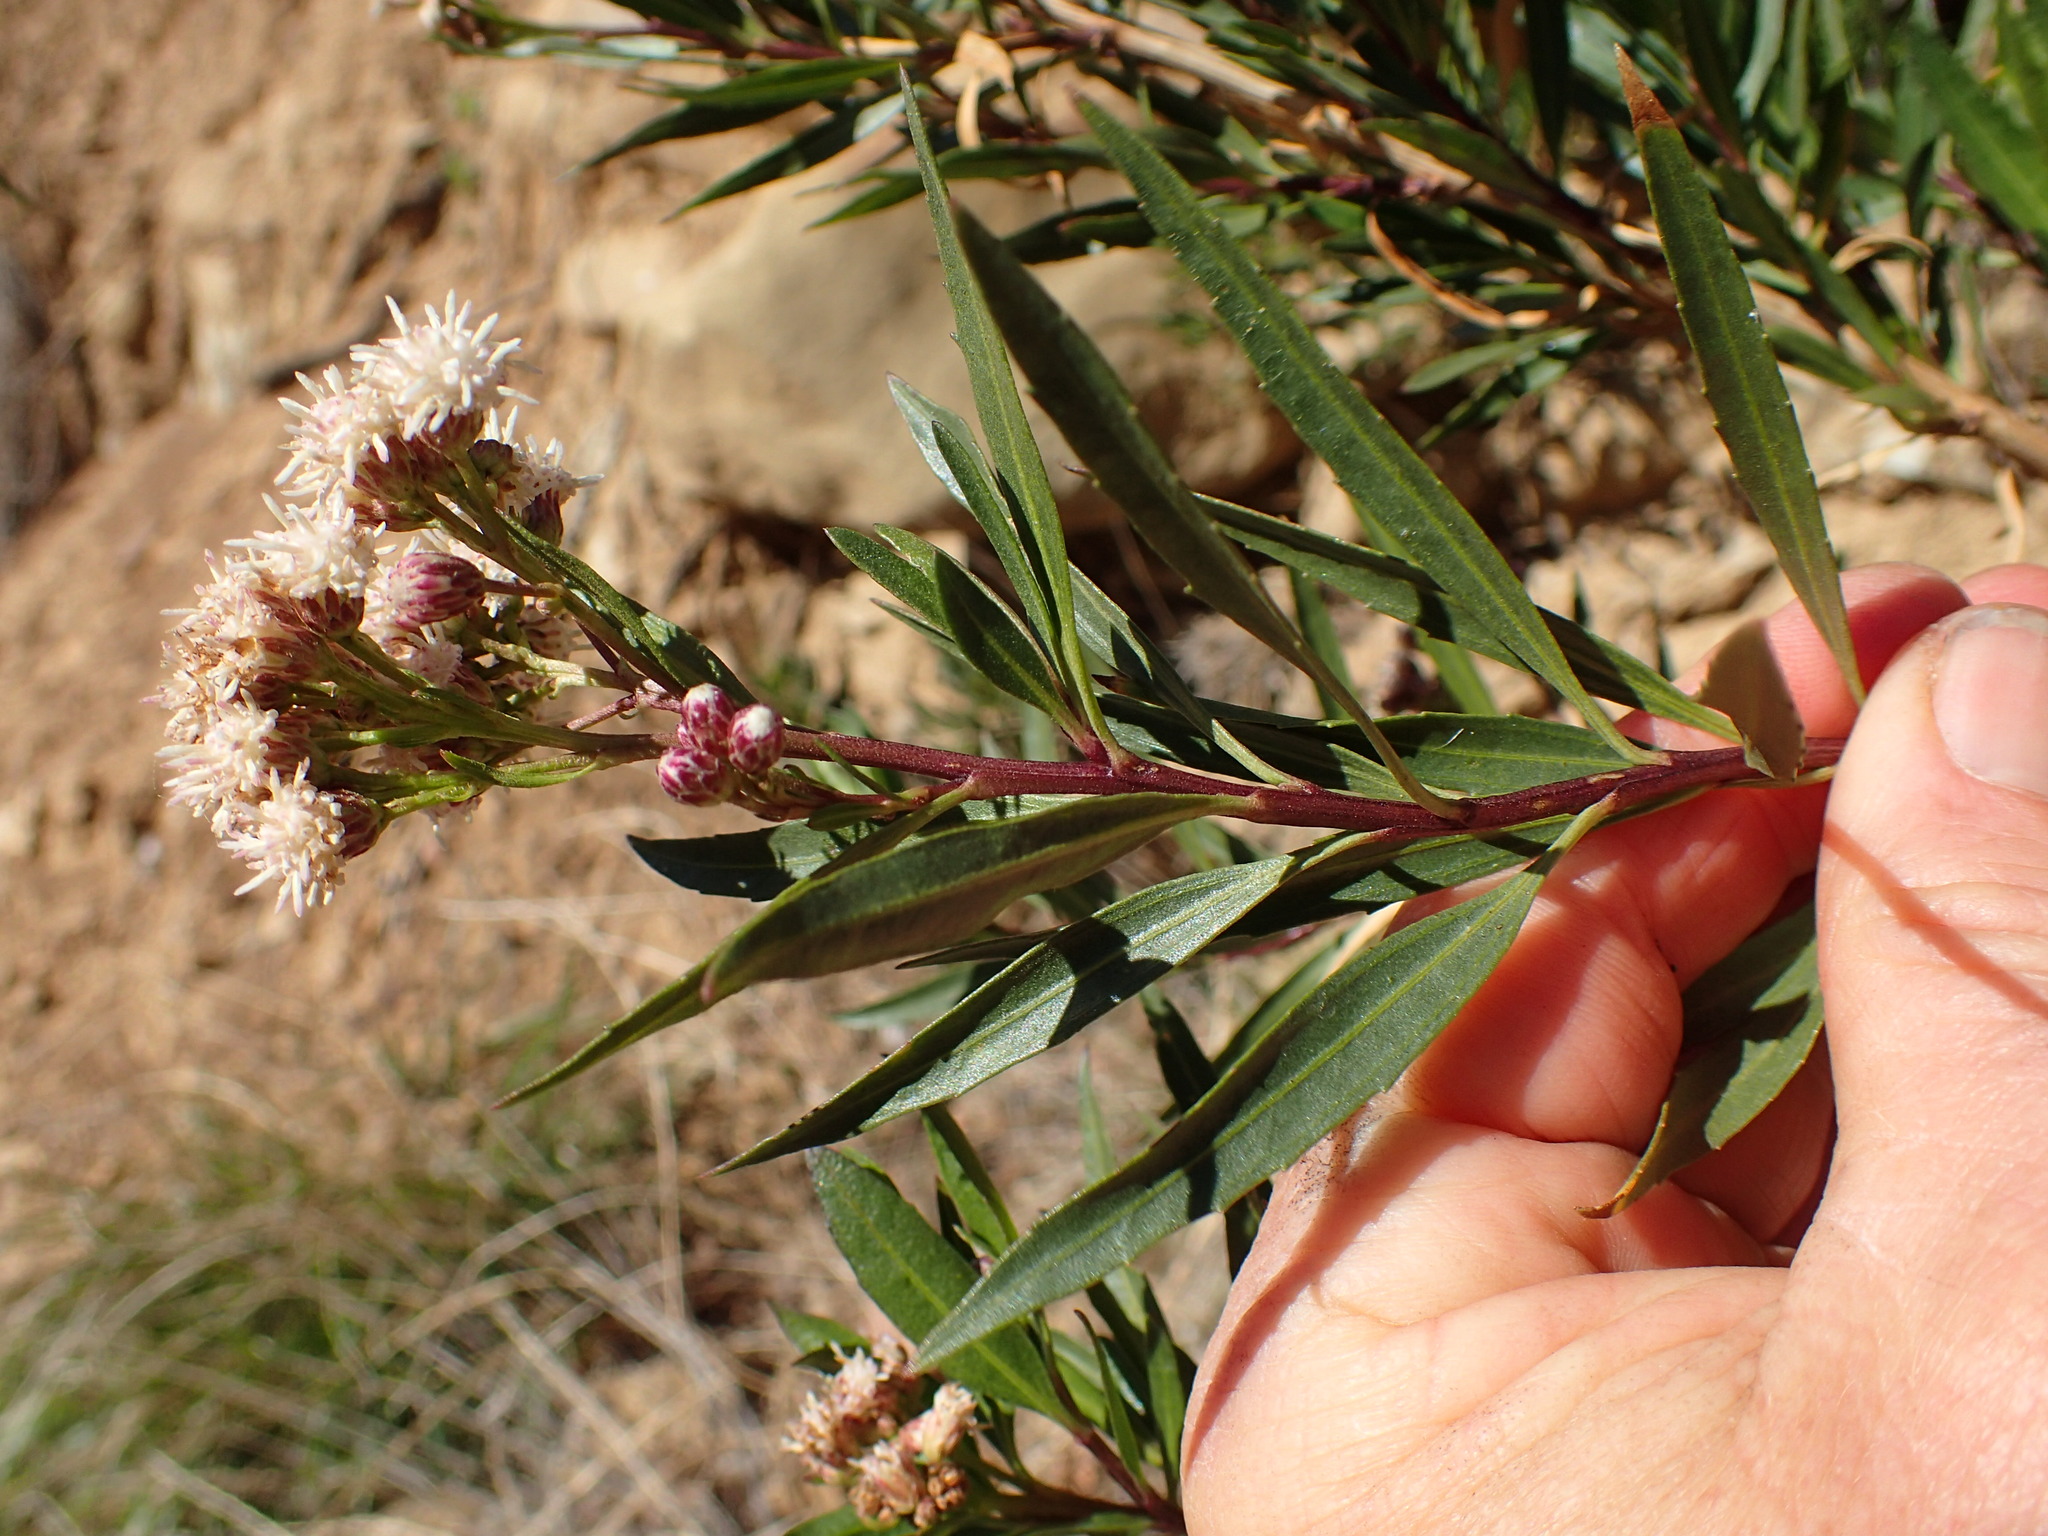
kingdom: Plantae
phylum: Tracheophyta
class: Magnoliopsida
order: Asterales
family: Asteraceae
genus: Baccharis
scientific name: Baccharis salicifolia
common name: Sticky baccharis
